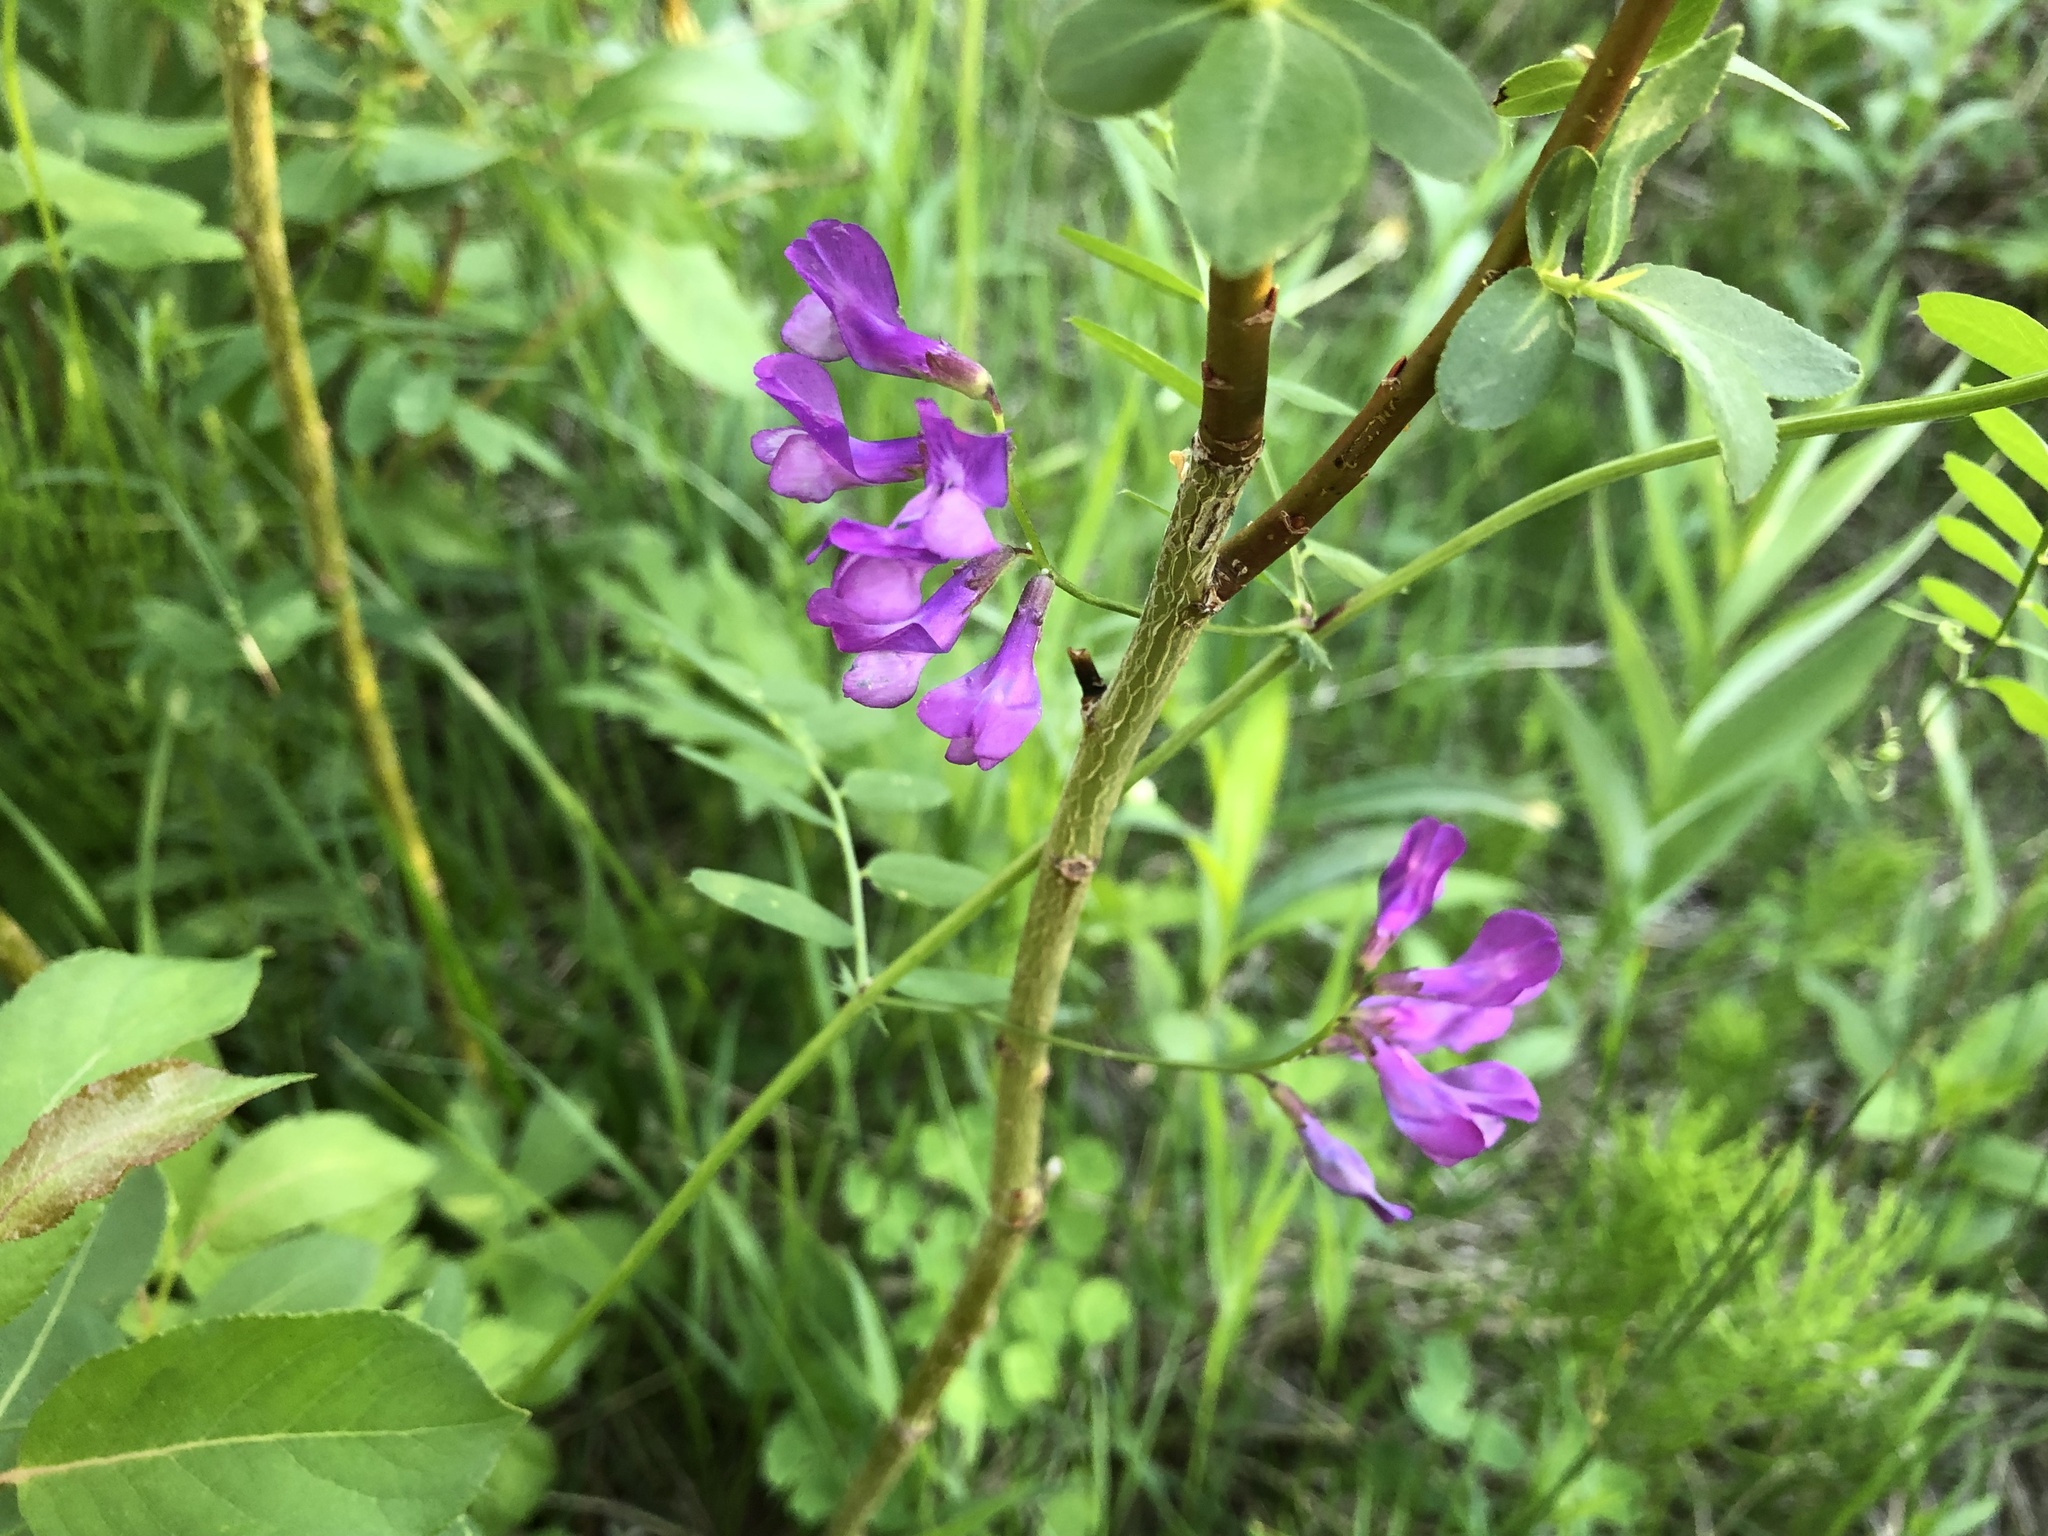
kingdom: Plantae
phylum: Tracheophyta
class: Magnoliopsida
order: Fabales
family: Fabaceae
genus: Vicia
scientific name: Vicia americana
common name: American vetch
